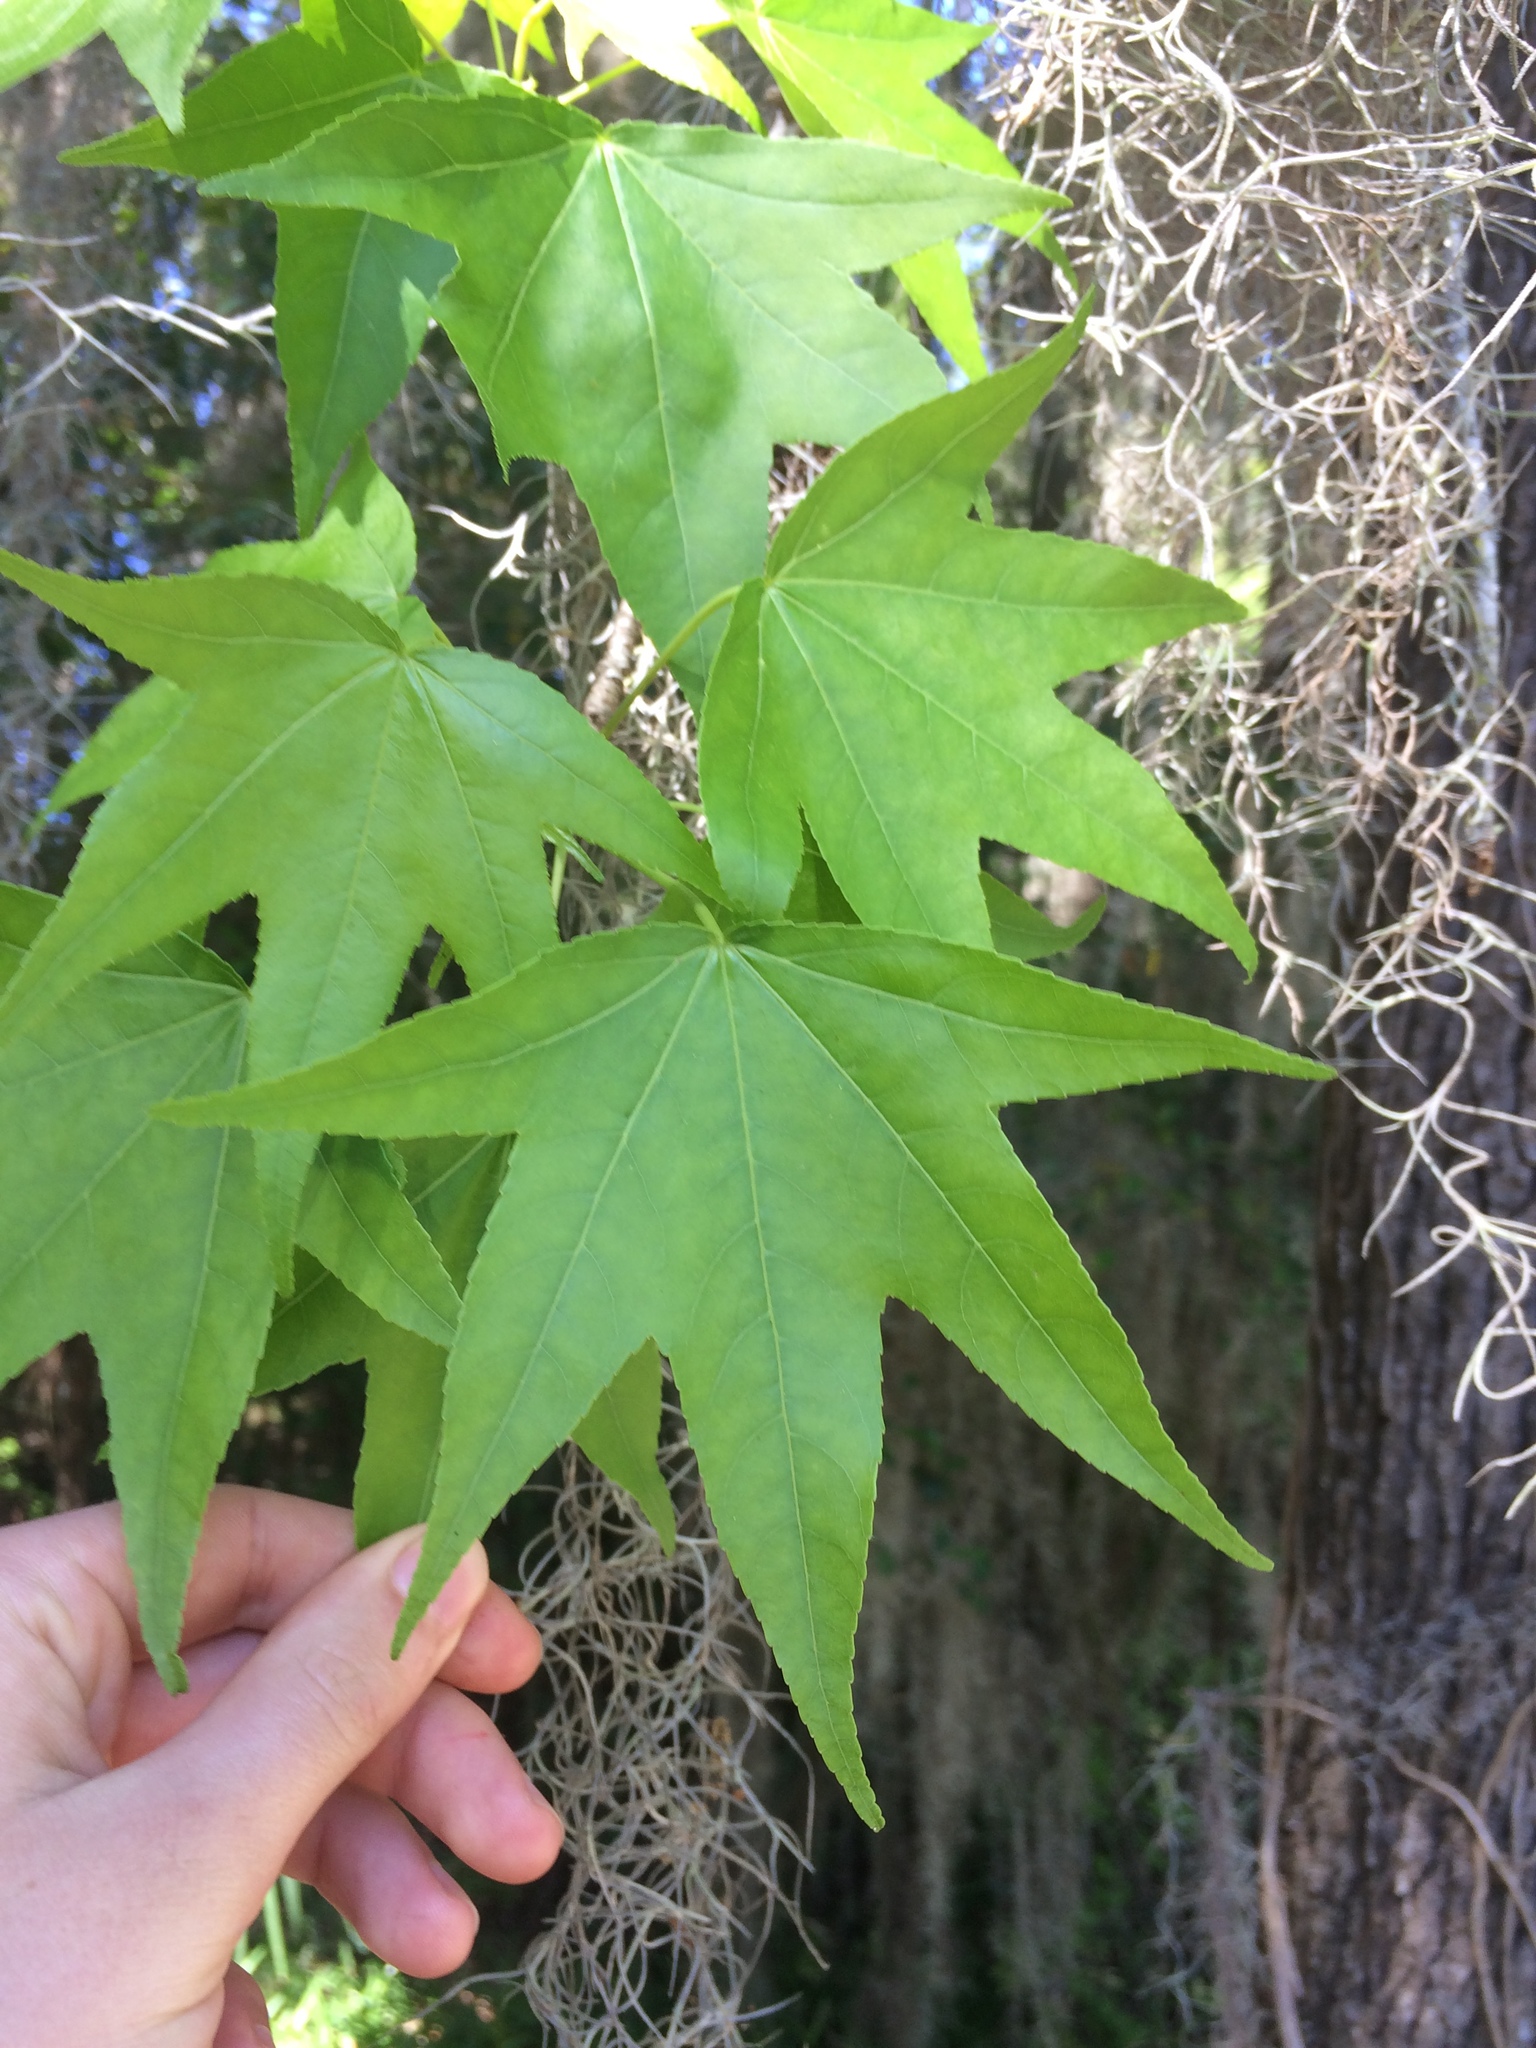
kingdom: Plantae
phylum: Tracheophyta
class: Magnoliopsida
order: Saxifragales
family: Altingiaceae
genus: Liquidambar
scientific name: Liquidambar styraciflua
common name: Sweet gum
